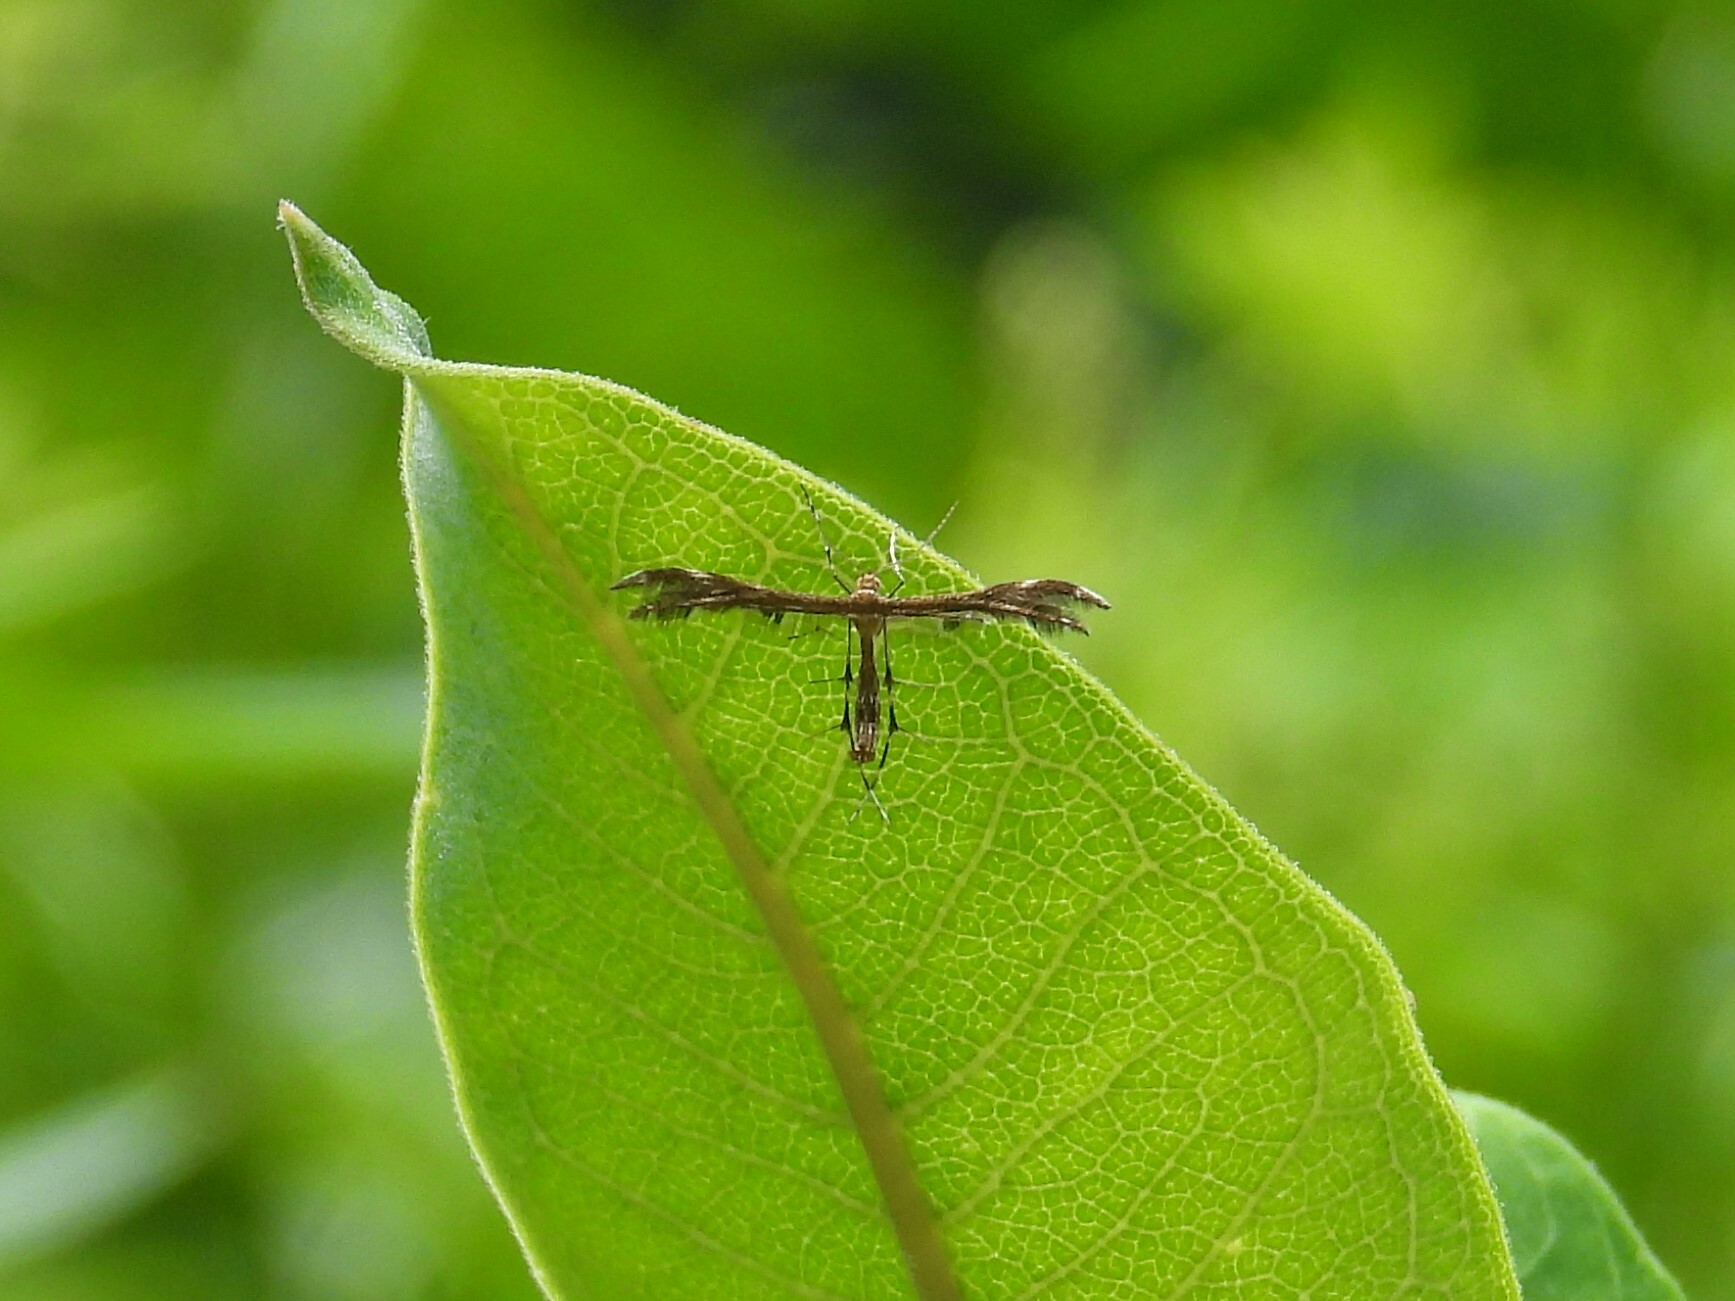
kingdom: Animalia
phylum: Arthropoda
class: Insecta
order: Lepidoptera
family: Pterophoridae
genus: Dejongia
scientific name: Dejongia lobidactylus
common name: Lobed plume moth
